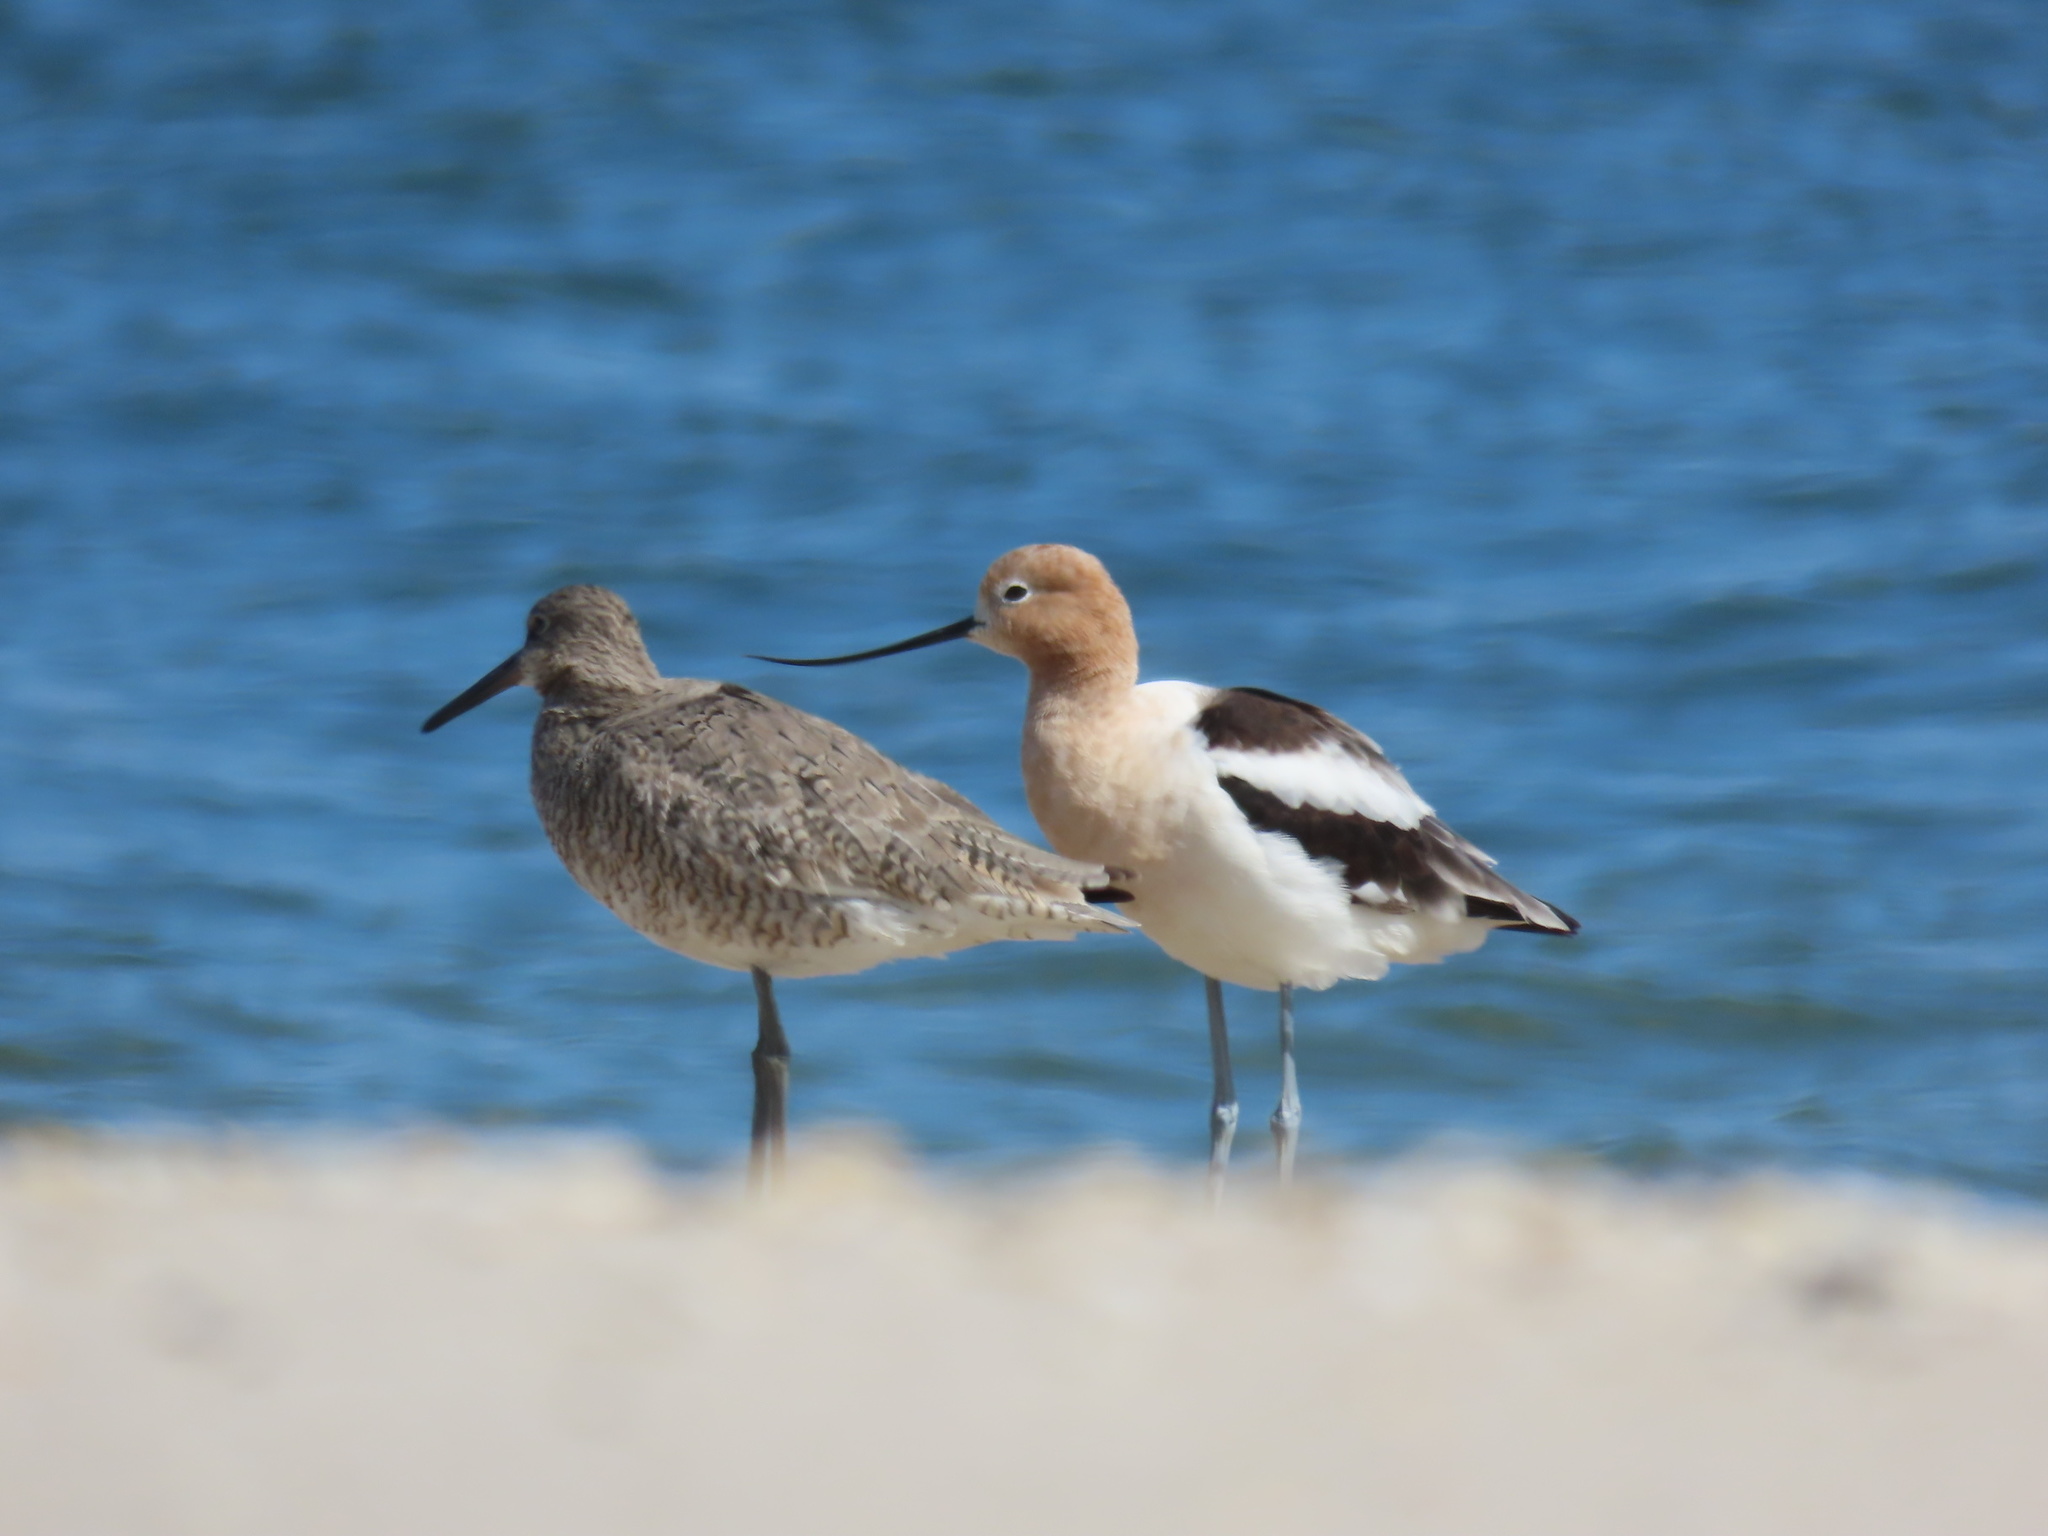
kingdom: Animalia
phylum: Chordata
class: Aves
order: Charadriiformes
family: Recurvirostridae
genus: Recurvirostra
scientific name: Recurvirostra americana
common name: American avocet
